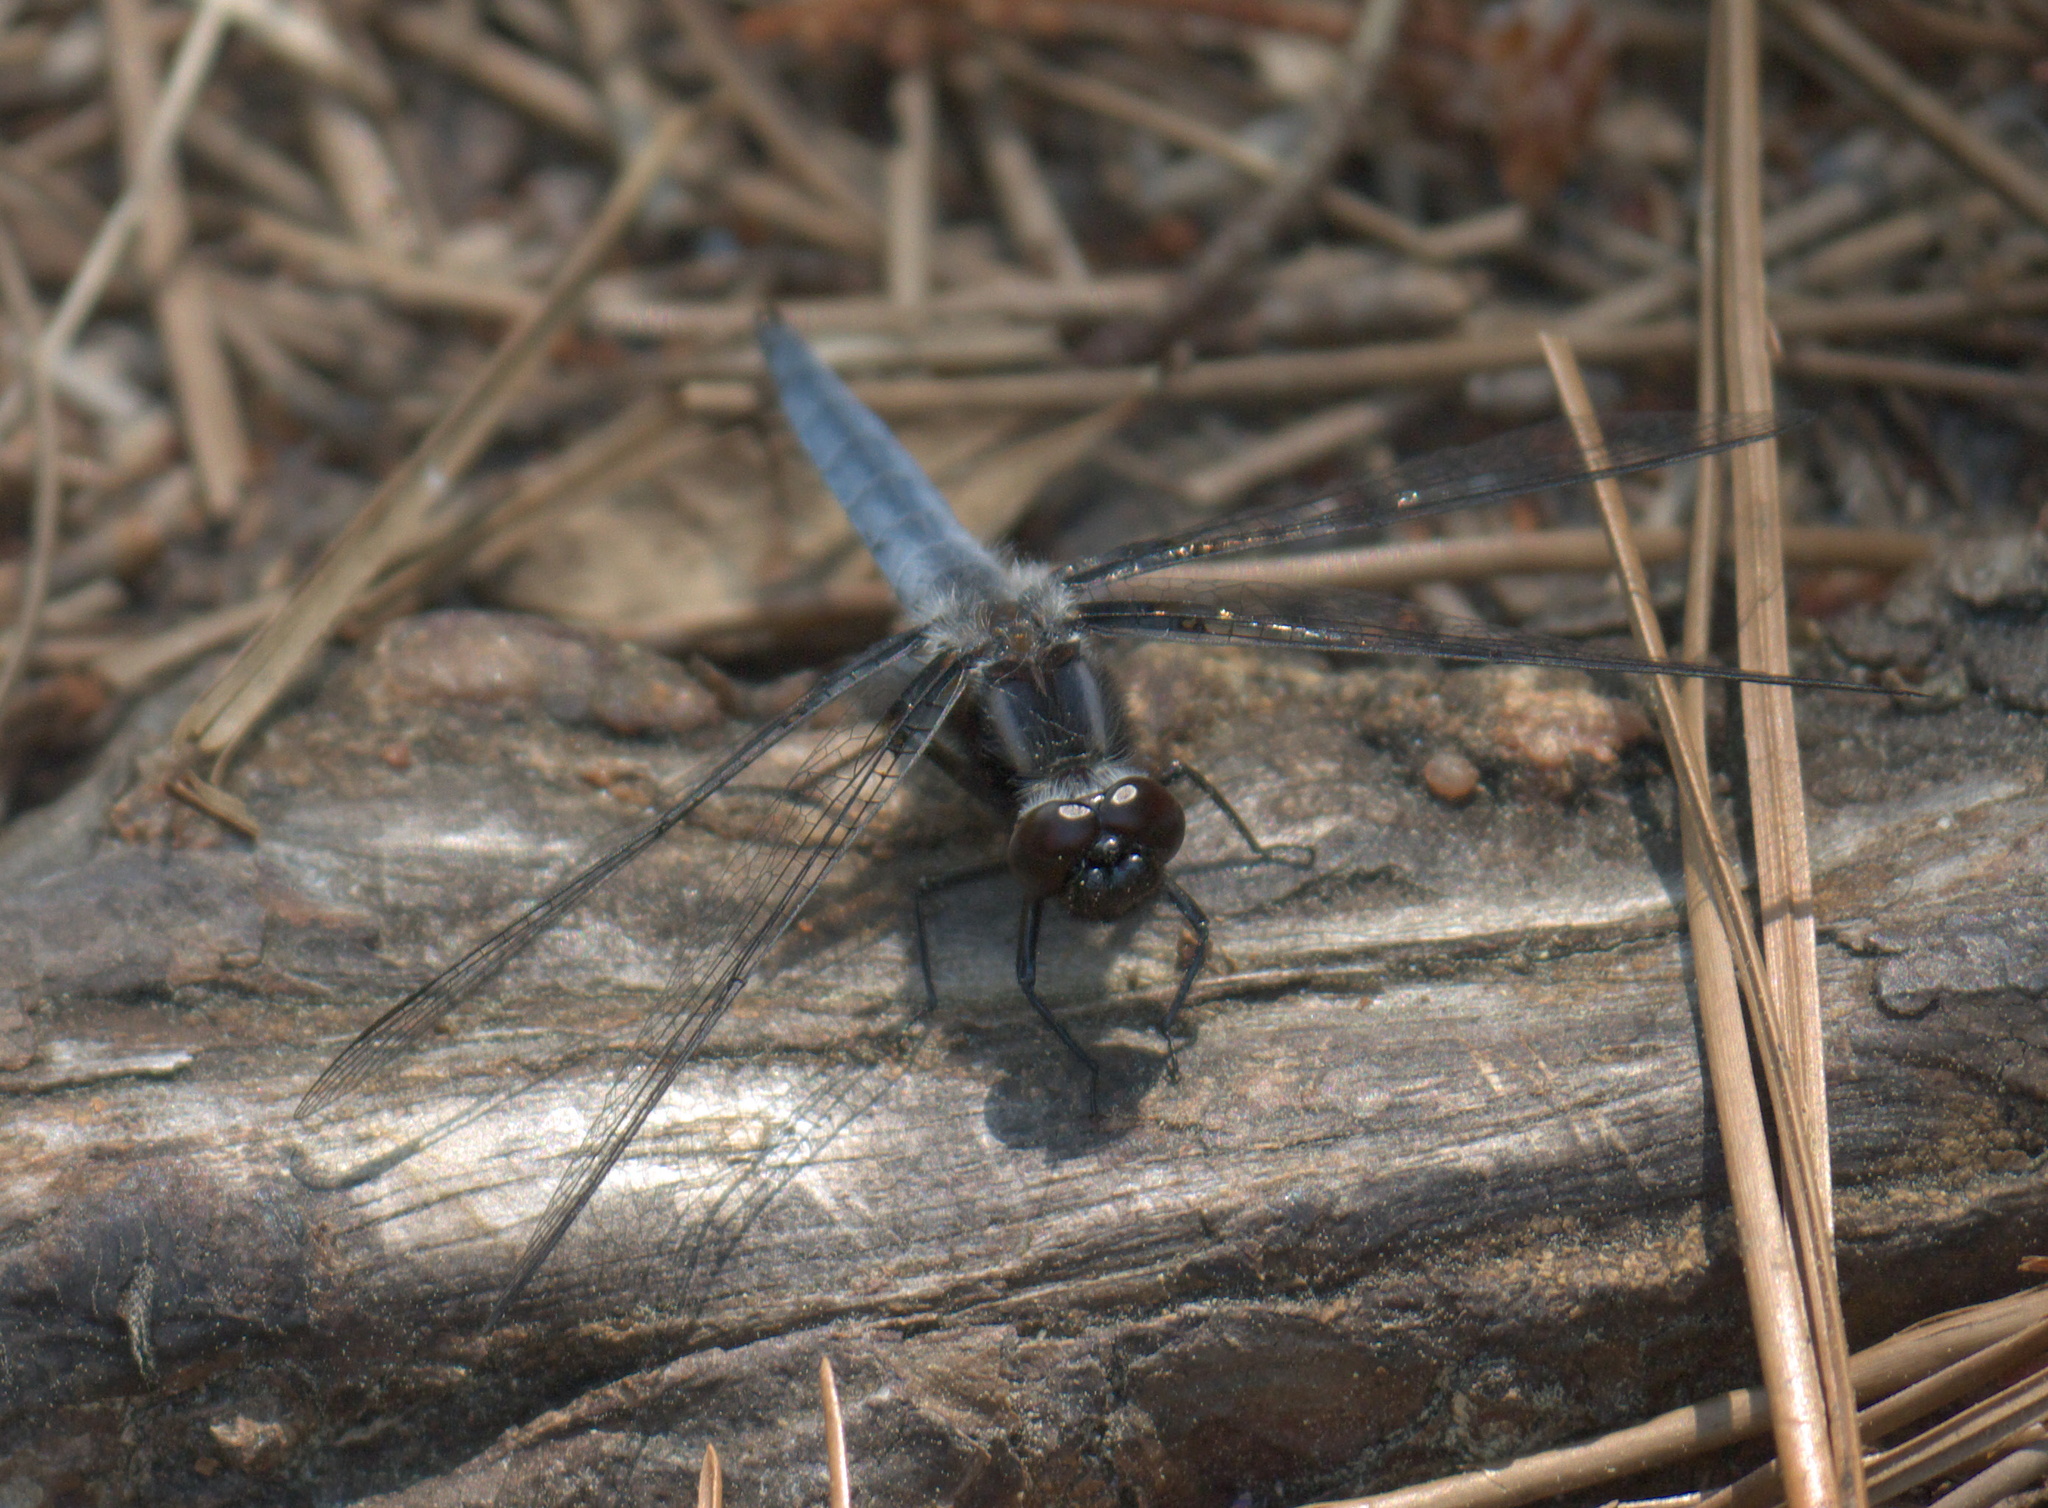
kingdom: Animalia
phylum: Arthropoda
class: Insecta
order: Odonata
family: Libellulidae
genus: Ladona
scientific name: Ladona deplanata
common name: Blue corporal
